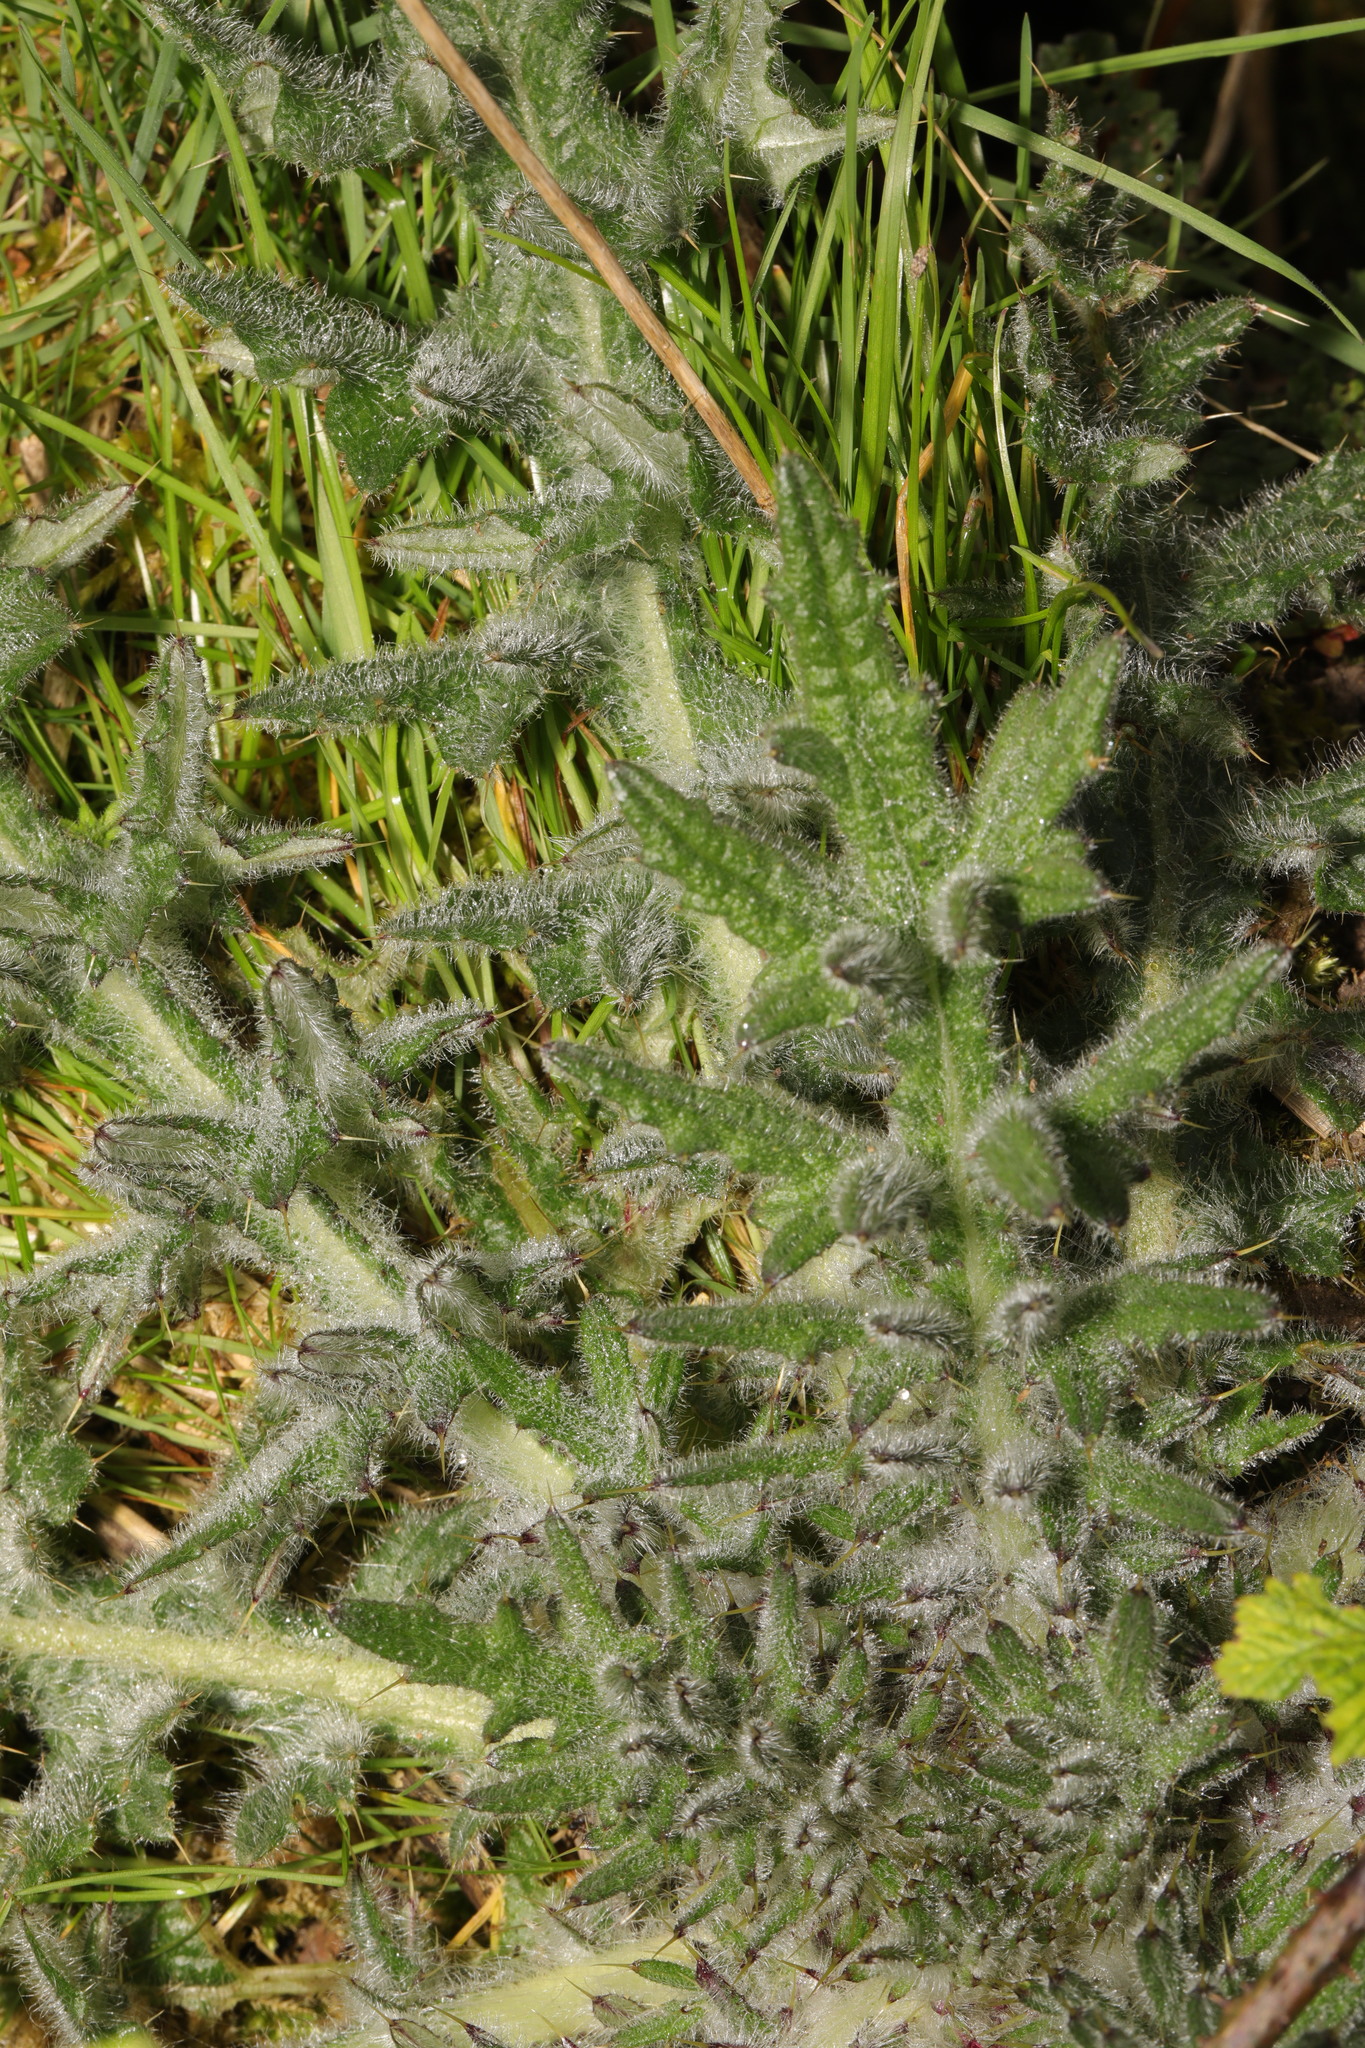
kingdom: Plantae
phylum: Tracheophyta
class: Magnoliopsida
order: Asterales
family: Asteraceae
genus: Cirsium
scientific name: Cirsium vulgare
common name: Bull thistle
